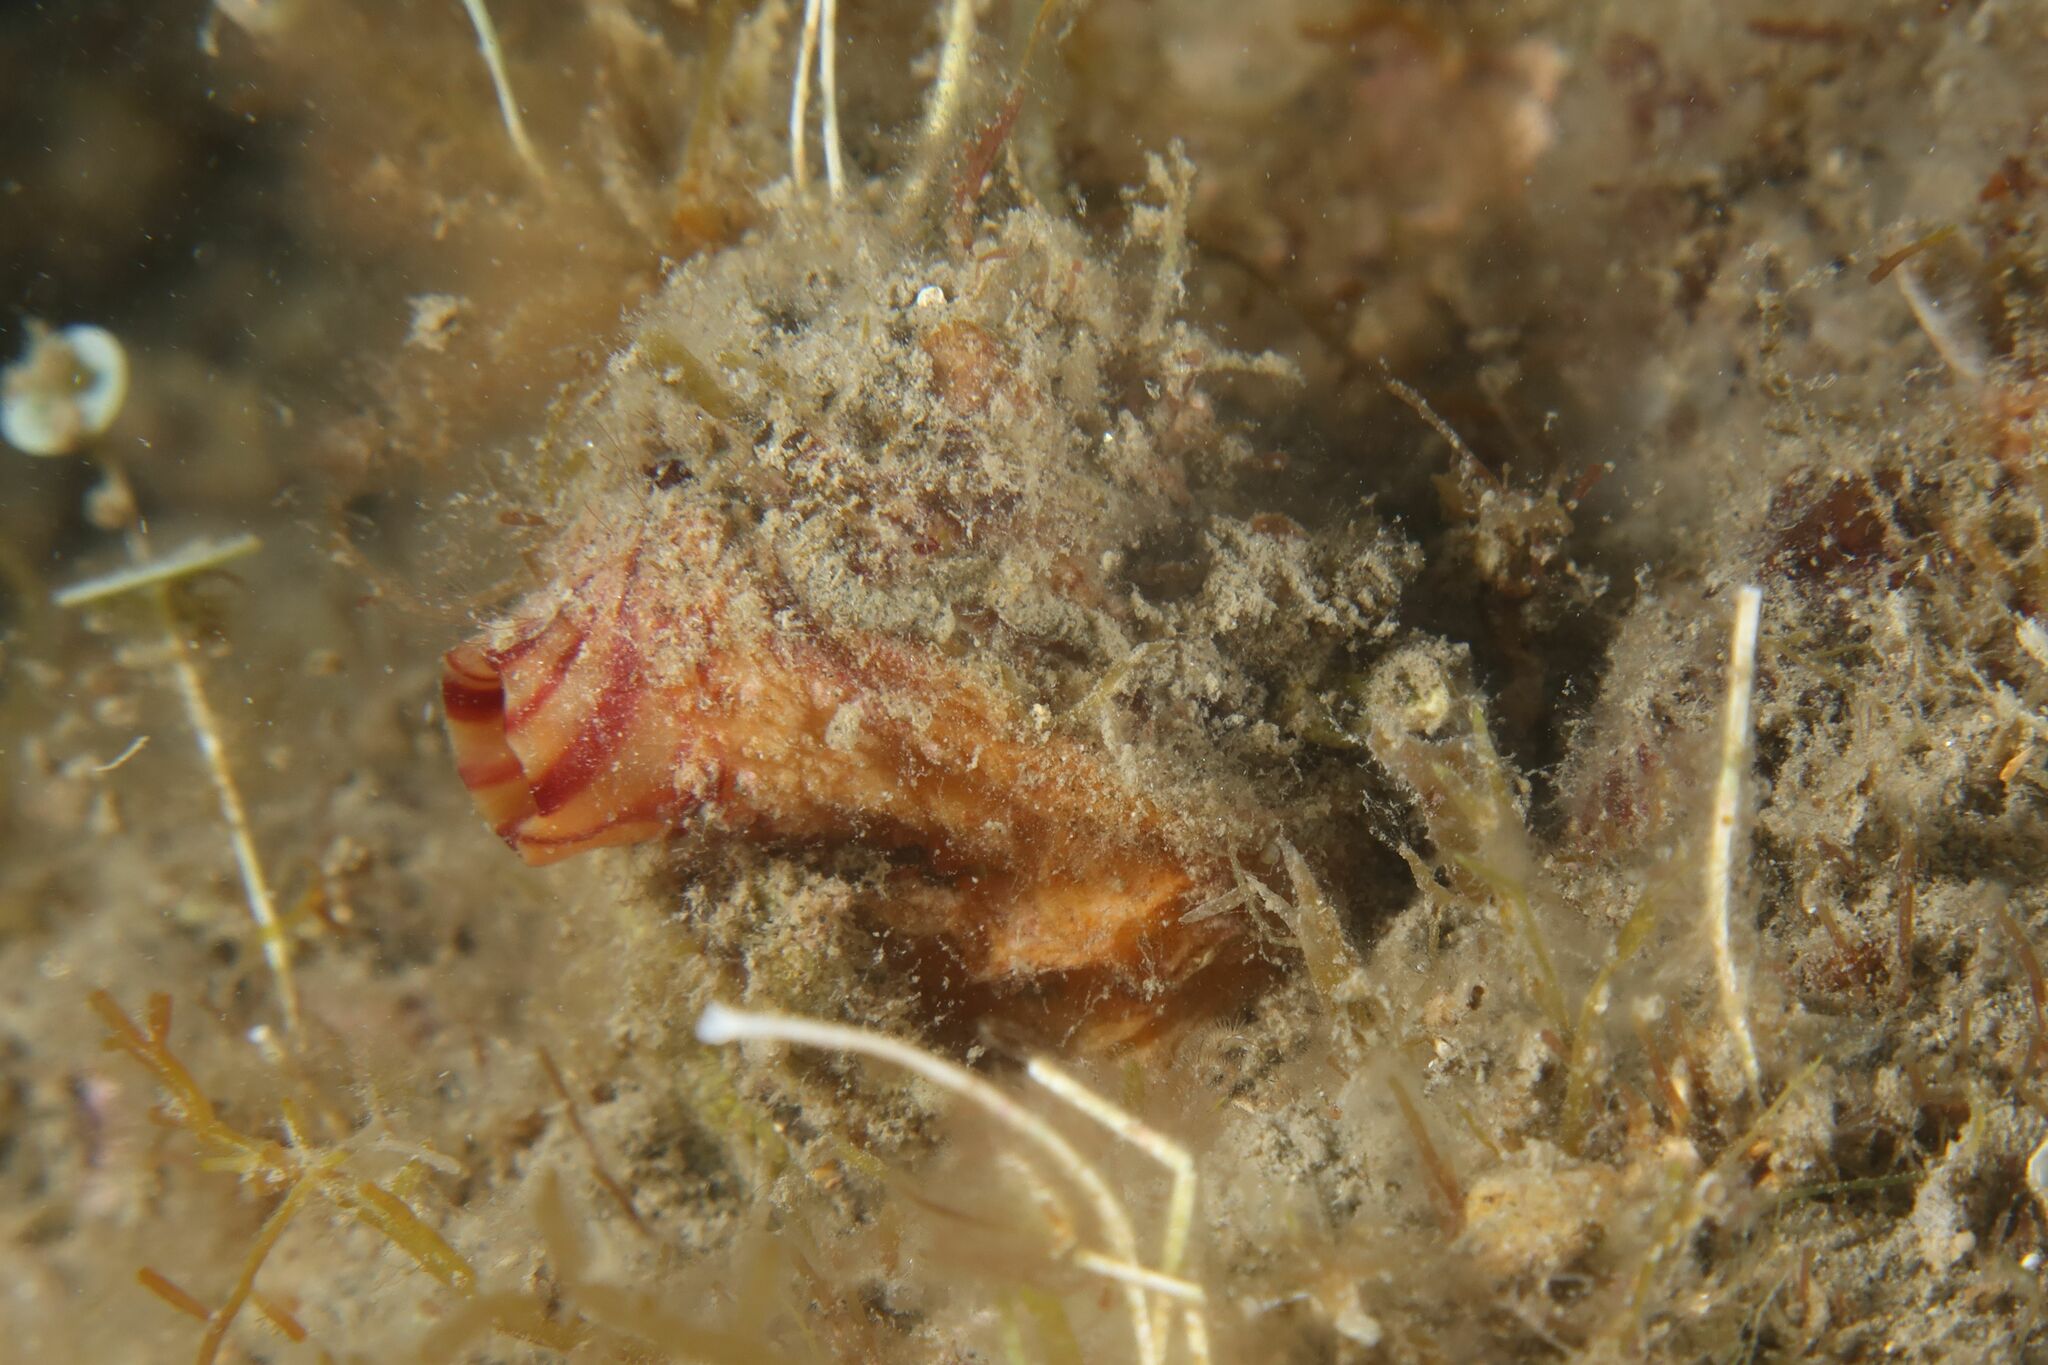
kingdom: Animalia
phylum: Chordata
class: Ascidiacea
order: Stolidobranchia
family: Pyuridae
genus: Microcosmus
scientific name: Microcosmus sabatieri
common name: Grooved sea squirt
